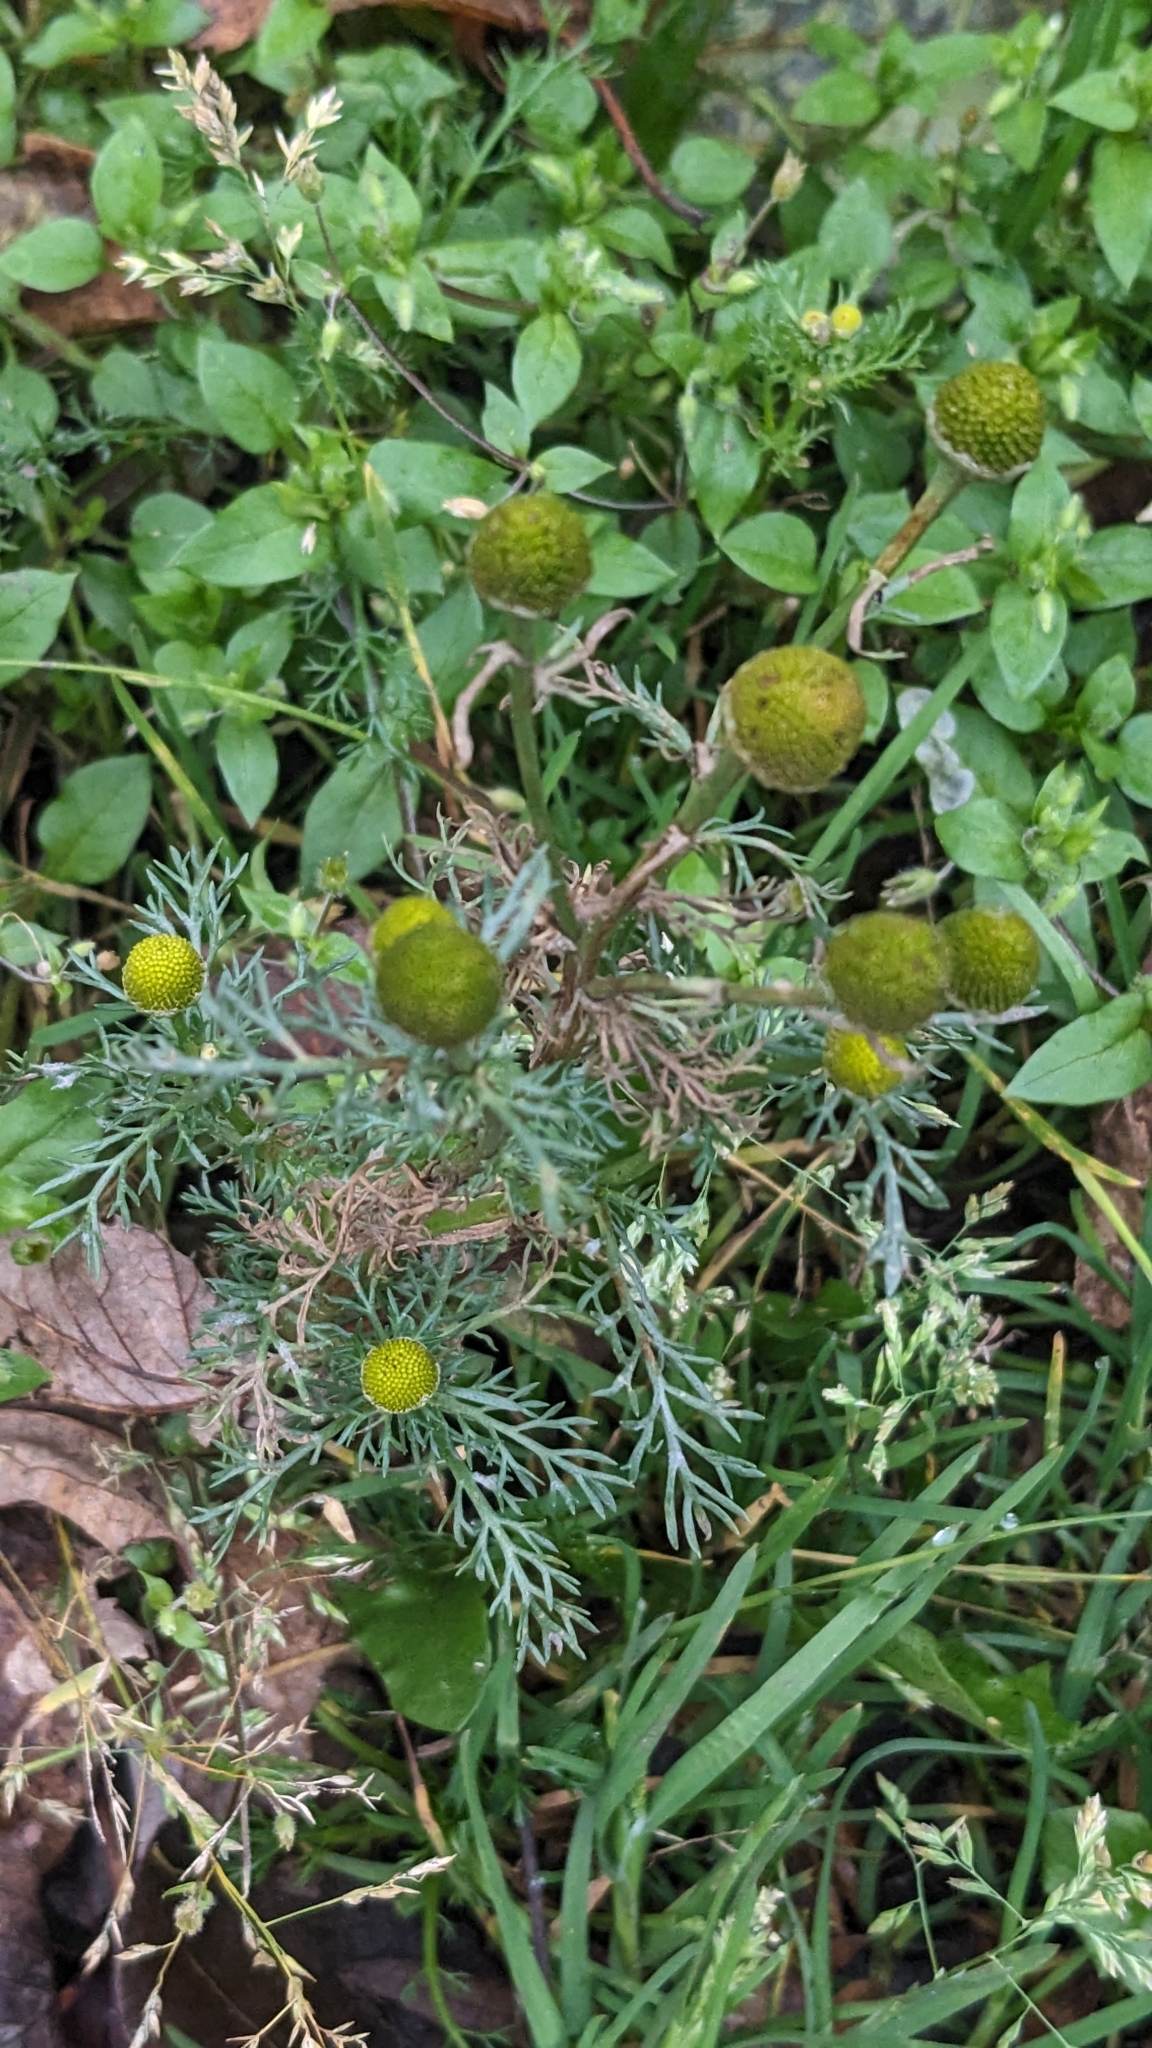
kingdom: Plantae
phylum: Tracheophyta
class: Magnoliopsida
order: Asterales
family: Asteraceae
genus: Matricaria
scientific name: Matricaria discoidea
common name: Disc mayweed
